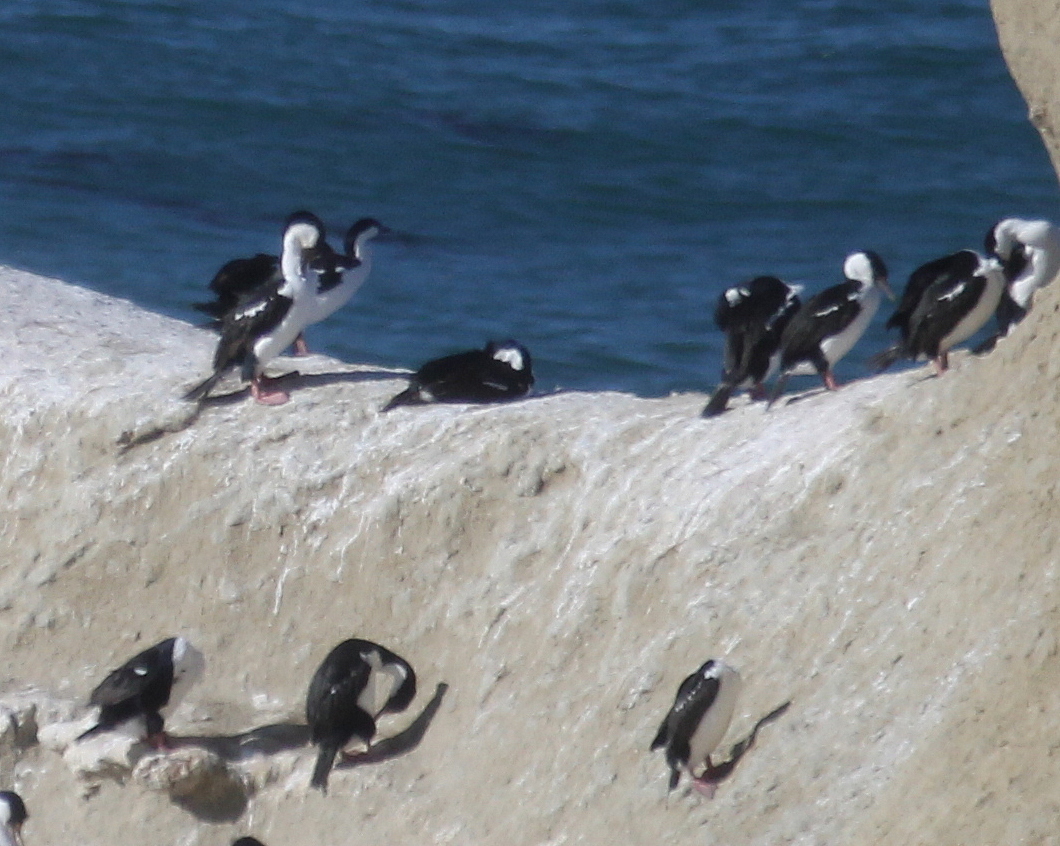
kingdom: Animalia
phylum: Chordata
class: Aves
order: Suliformes
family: Phalacrocoracidae
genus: Leucocarbo
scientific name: Leucocarbo atriceps
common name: Imperial shag
